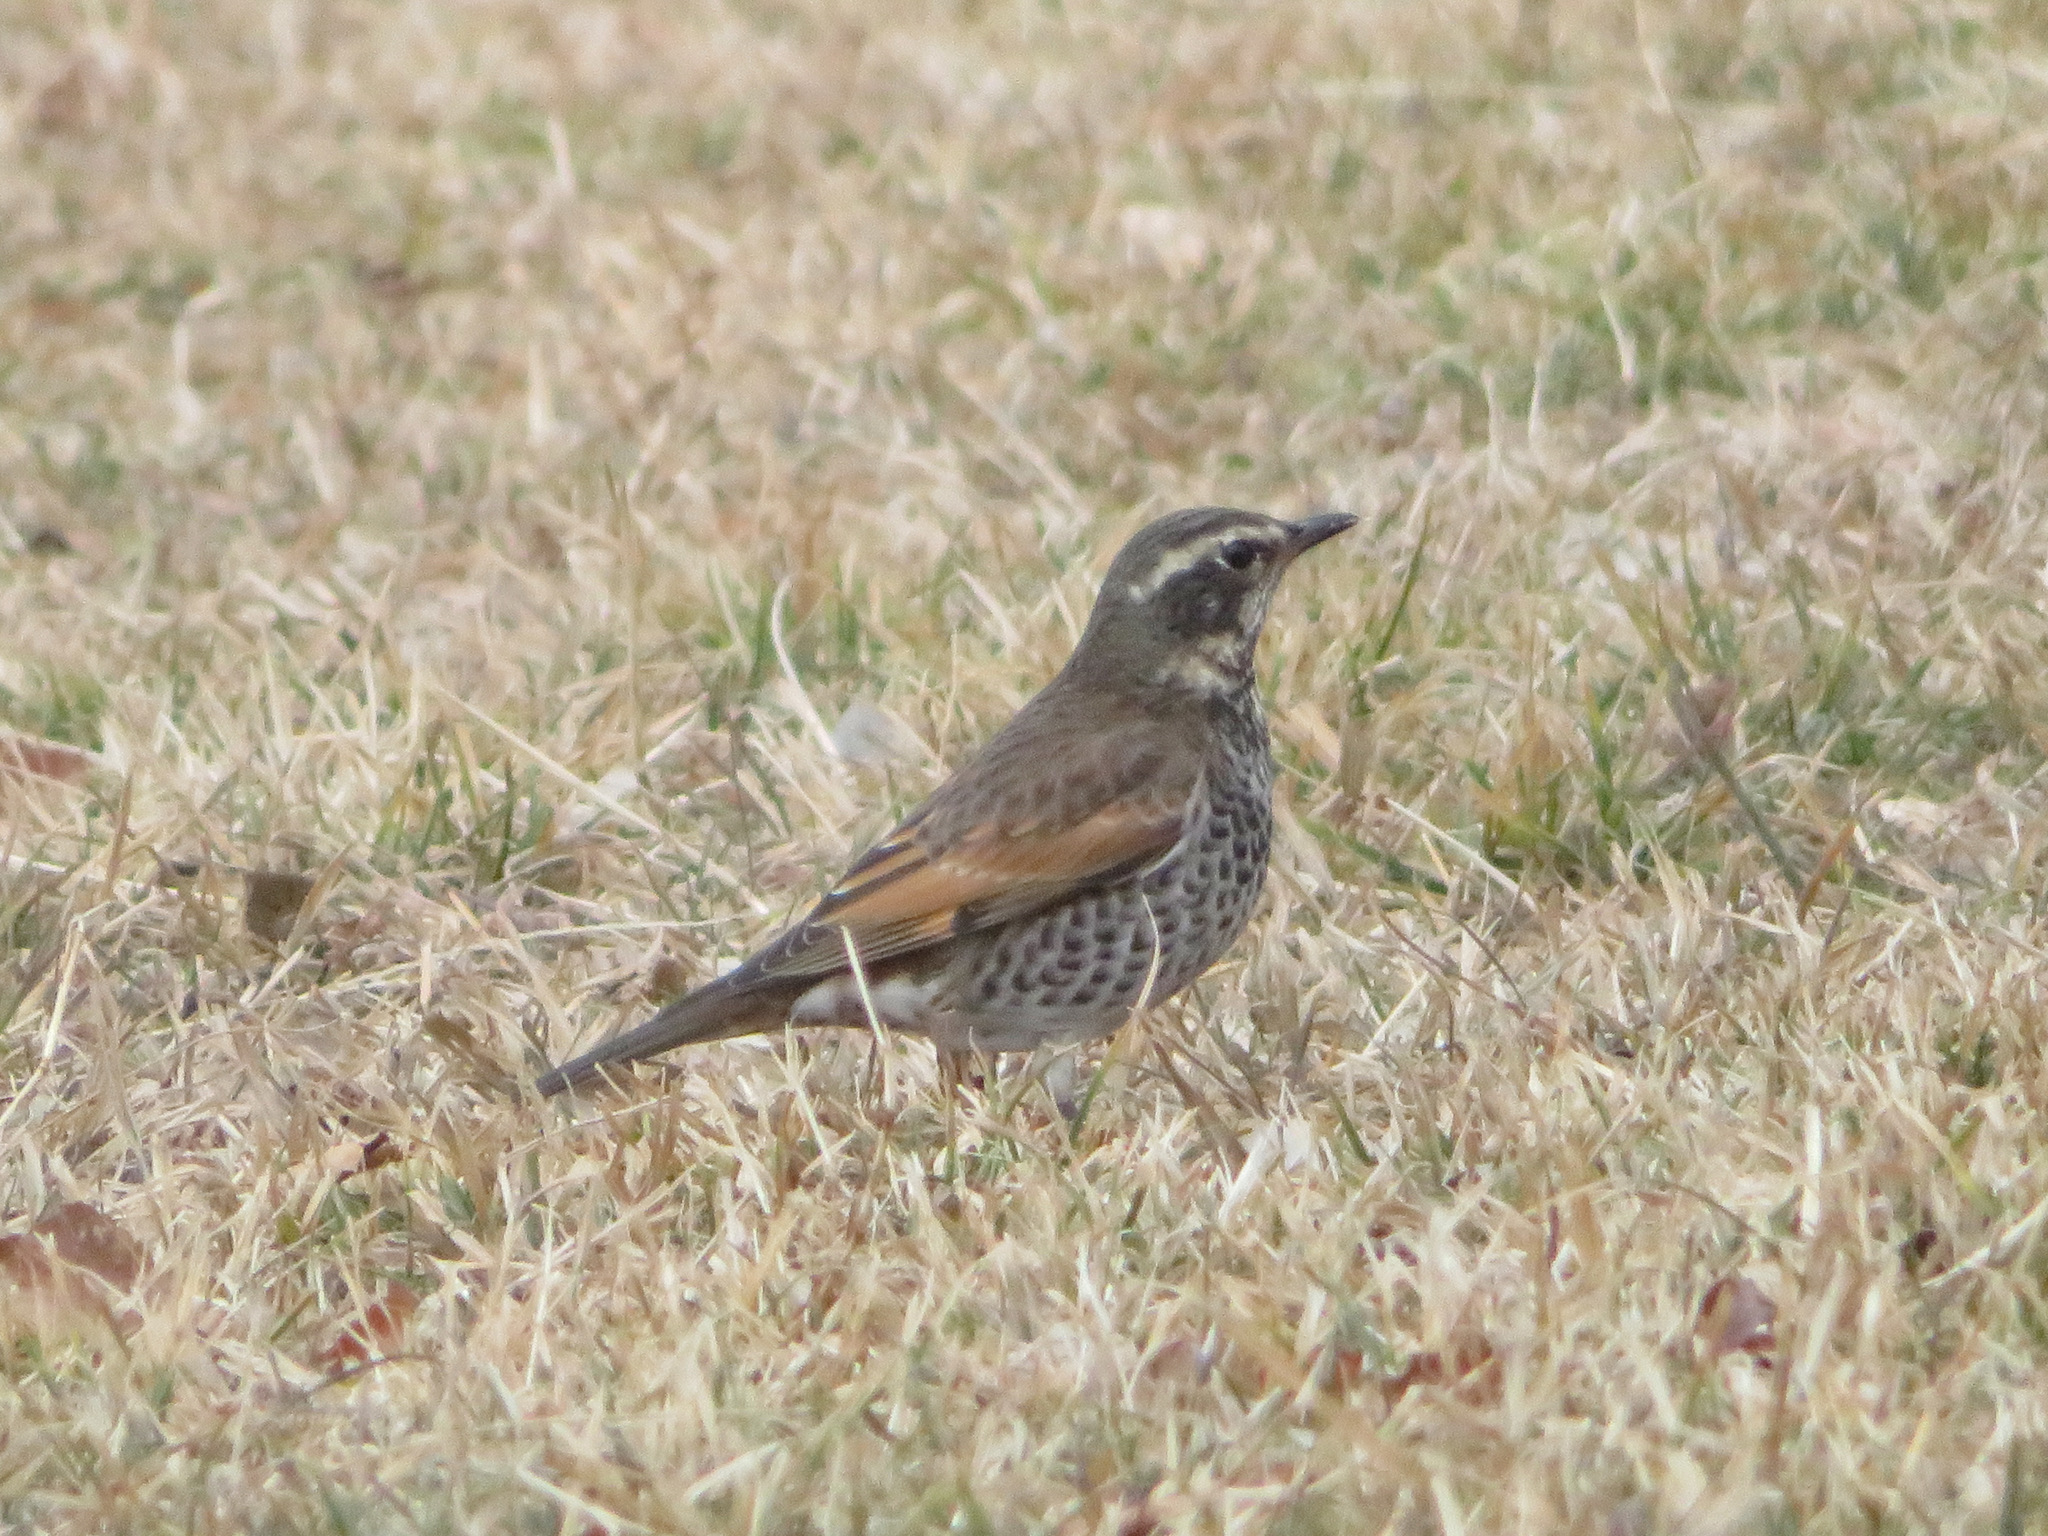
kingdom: Animalia
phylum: Chordata
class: Aves
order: Passeriformes
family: Turdidae
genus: Turdus
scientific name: Turdus eunomus
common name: Dusky thrush
